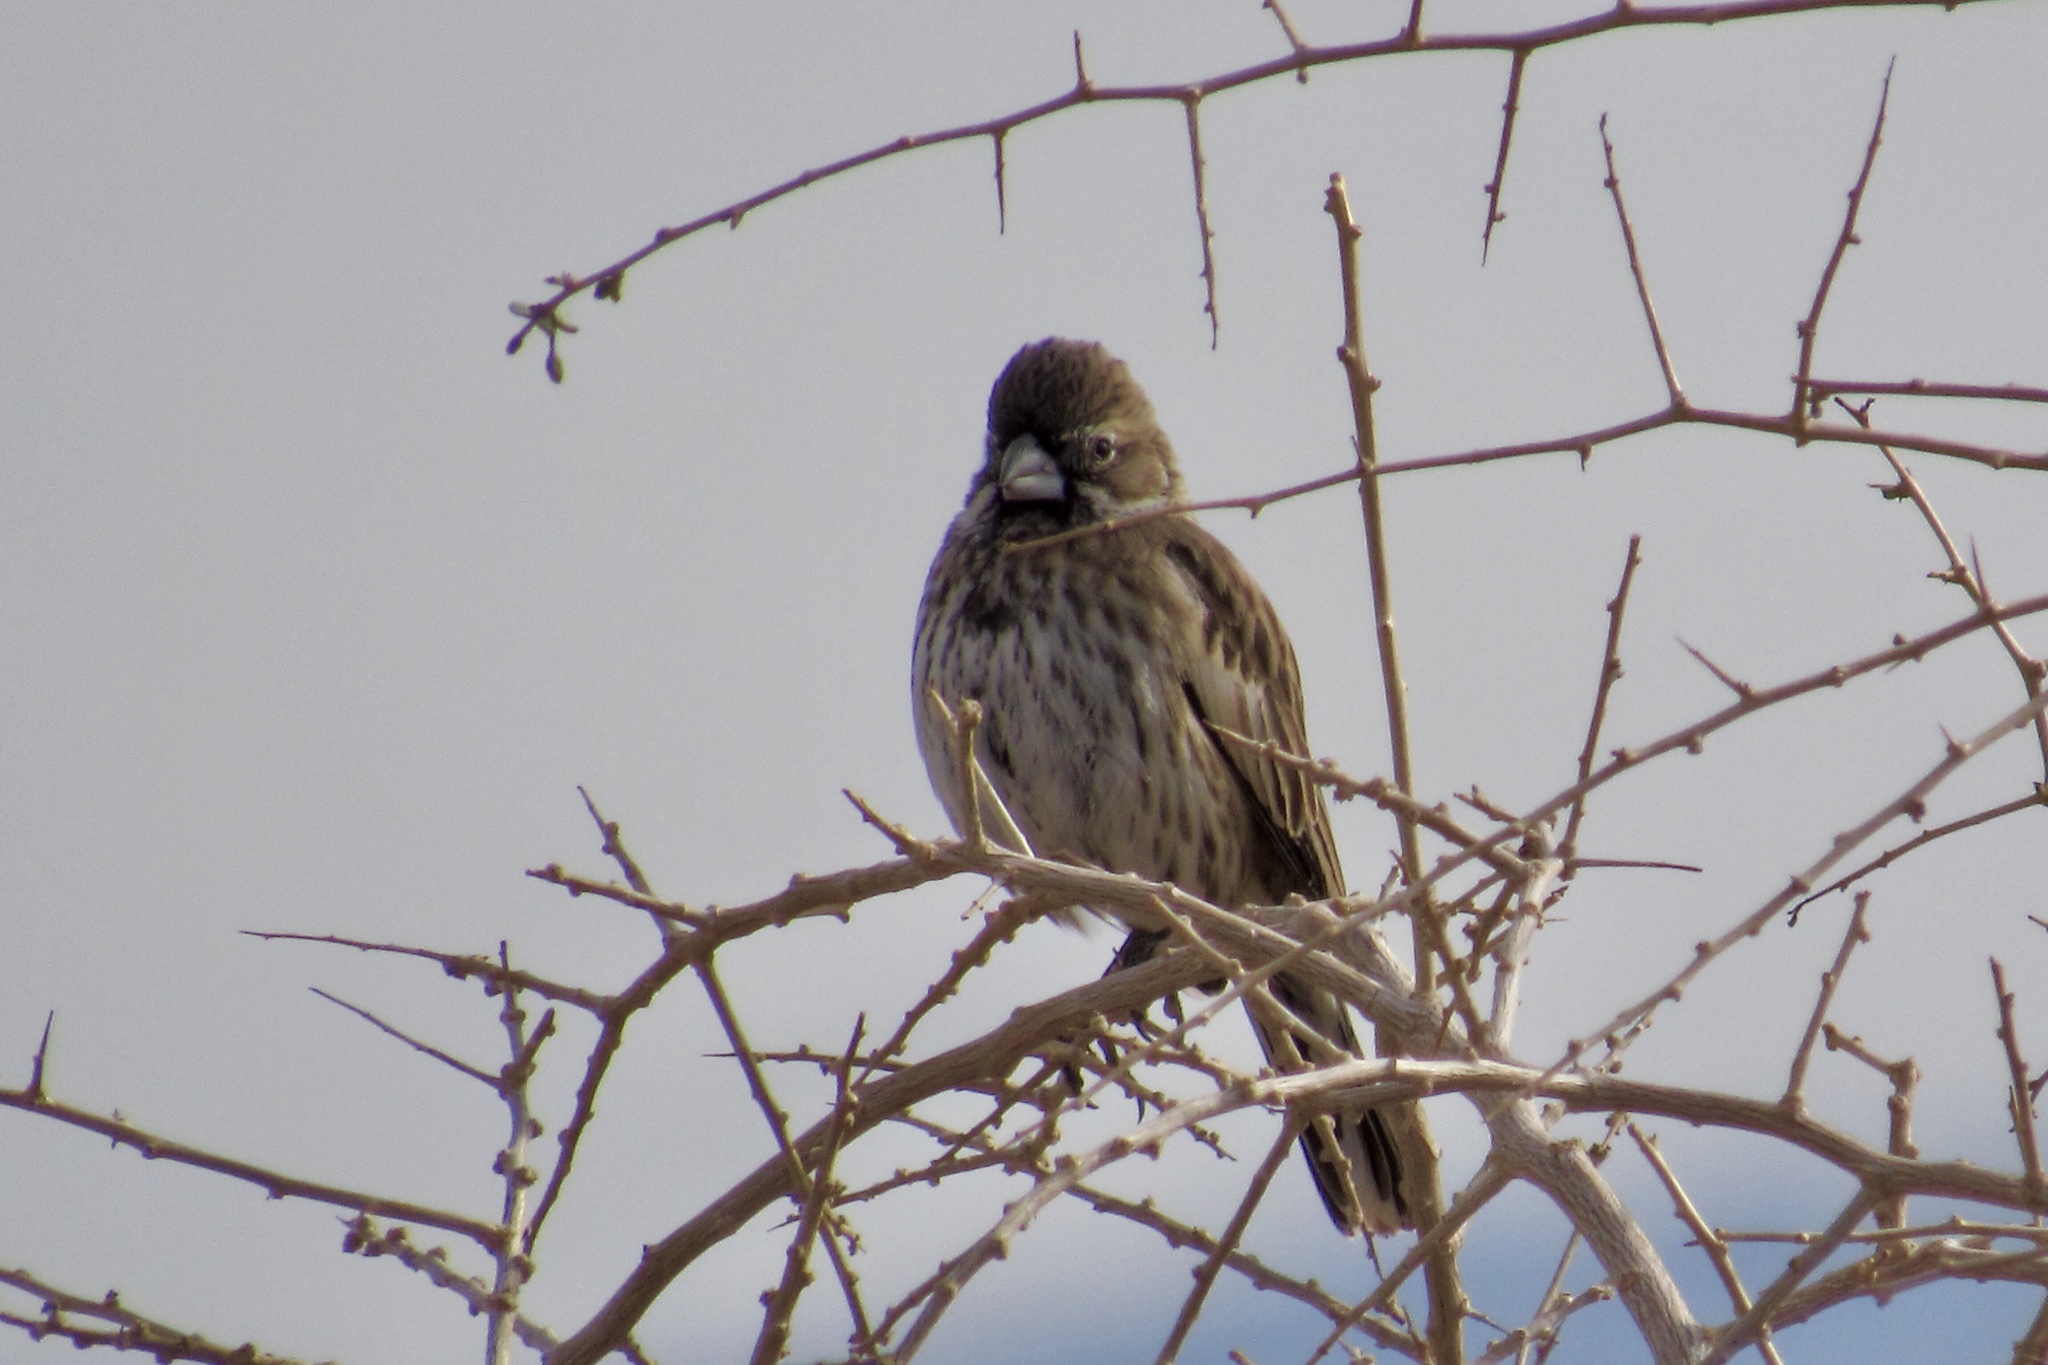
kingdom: Animalia
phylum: Chordata
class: Aves
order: Passeriformes
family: Passerellidae
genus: Calamospiza
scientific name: Calamospiza melanocorys
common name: Lark bunting
